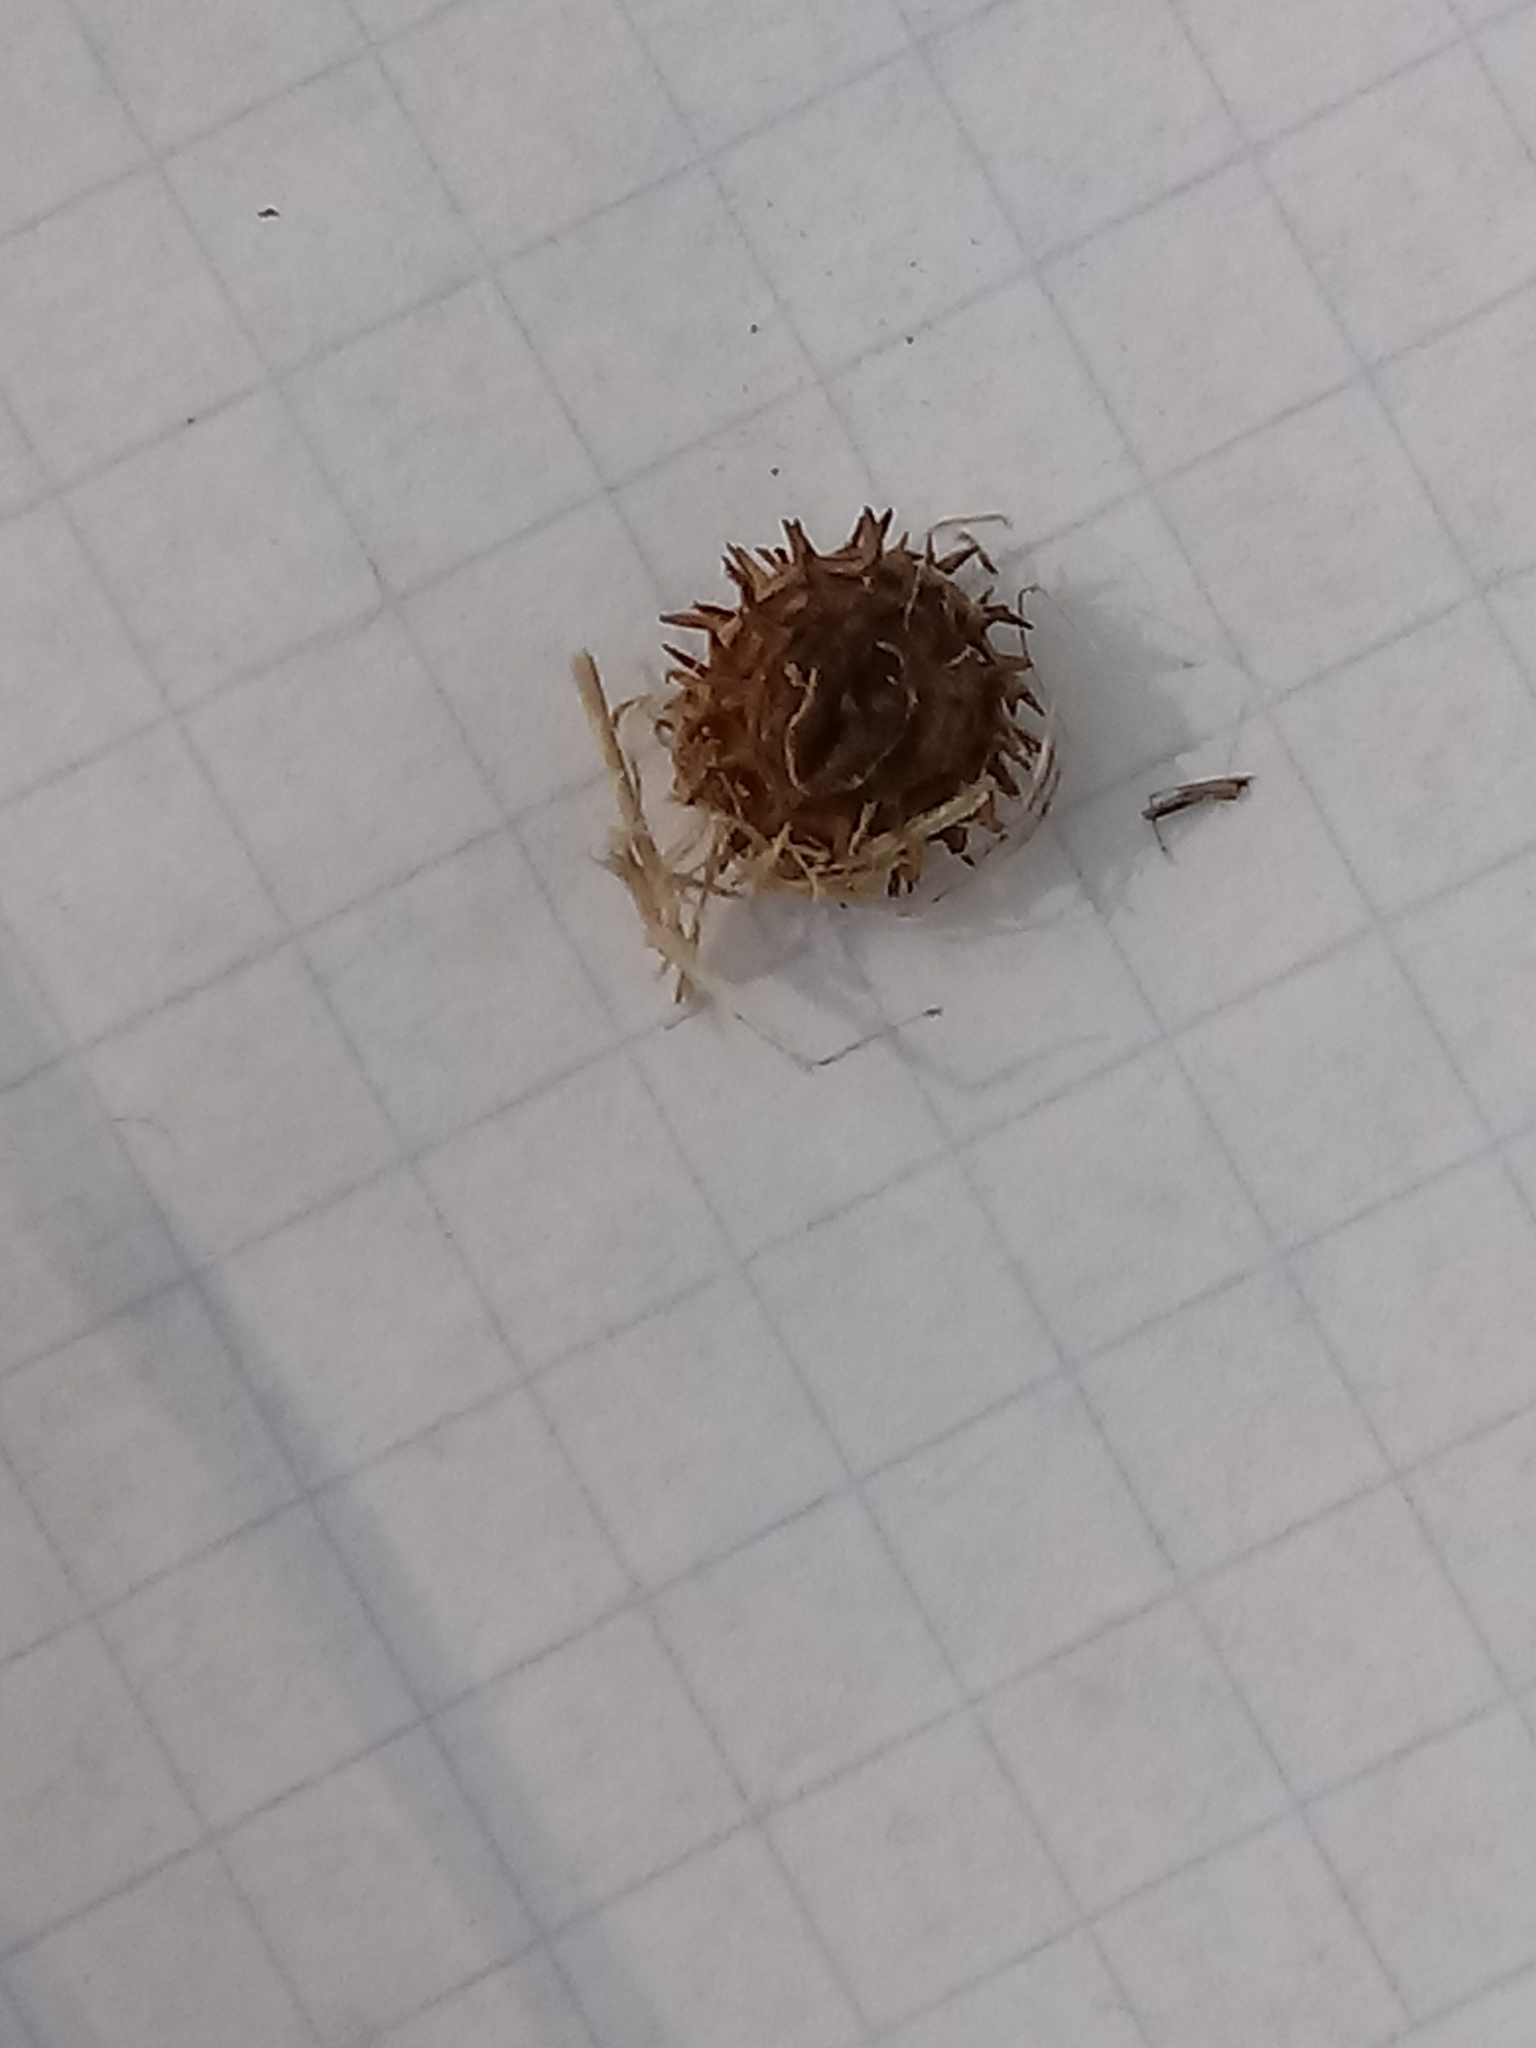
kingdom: Plantae
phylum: Tracheophyta
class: Magnoliopsida
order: Fabales
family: Fabaceae
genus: Medicago
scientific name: Medicago polymorpha
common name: Burclover
